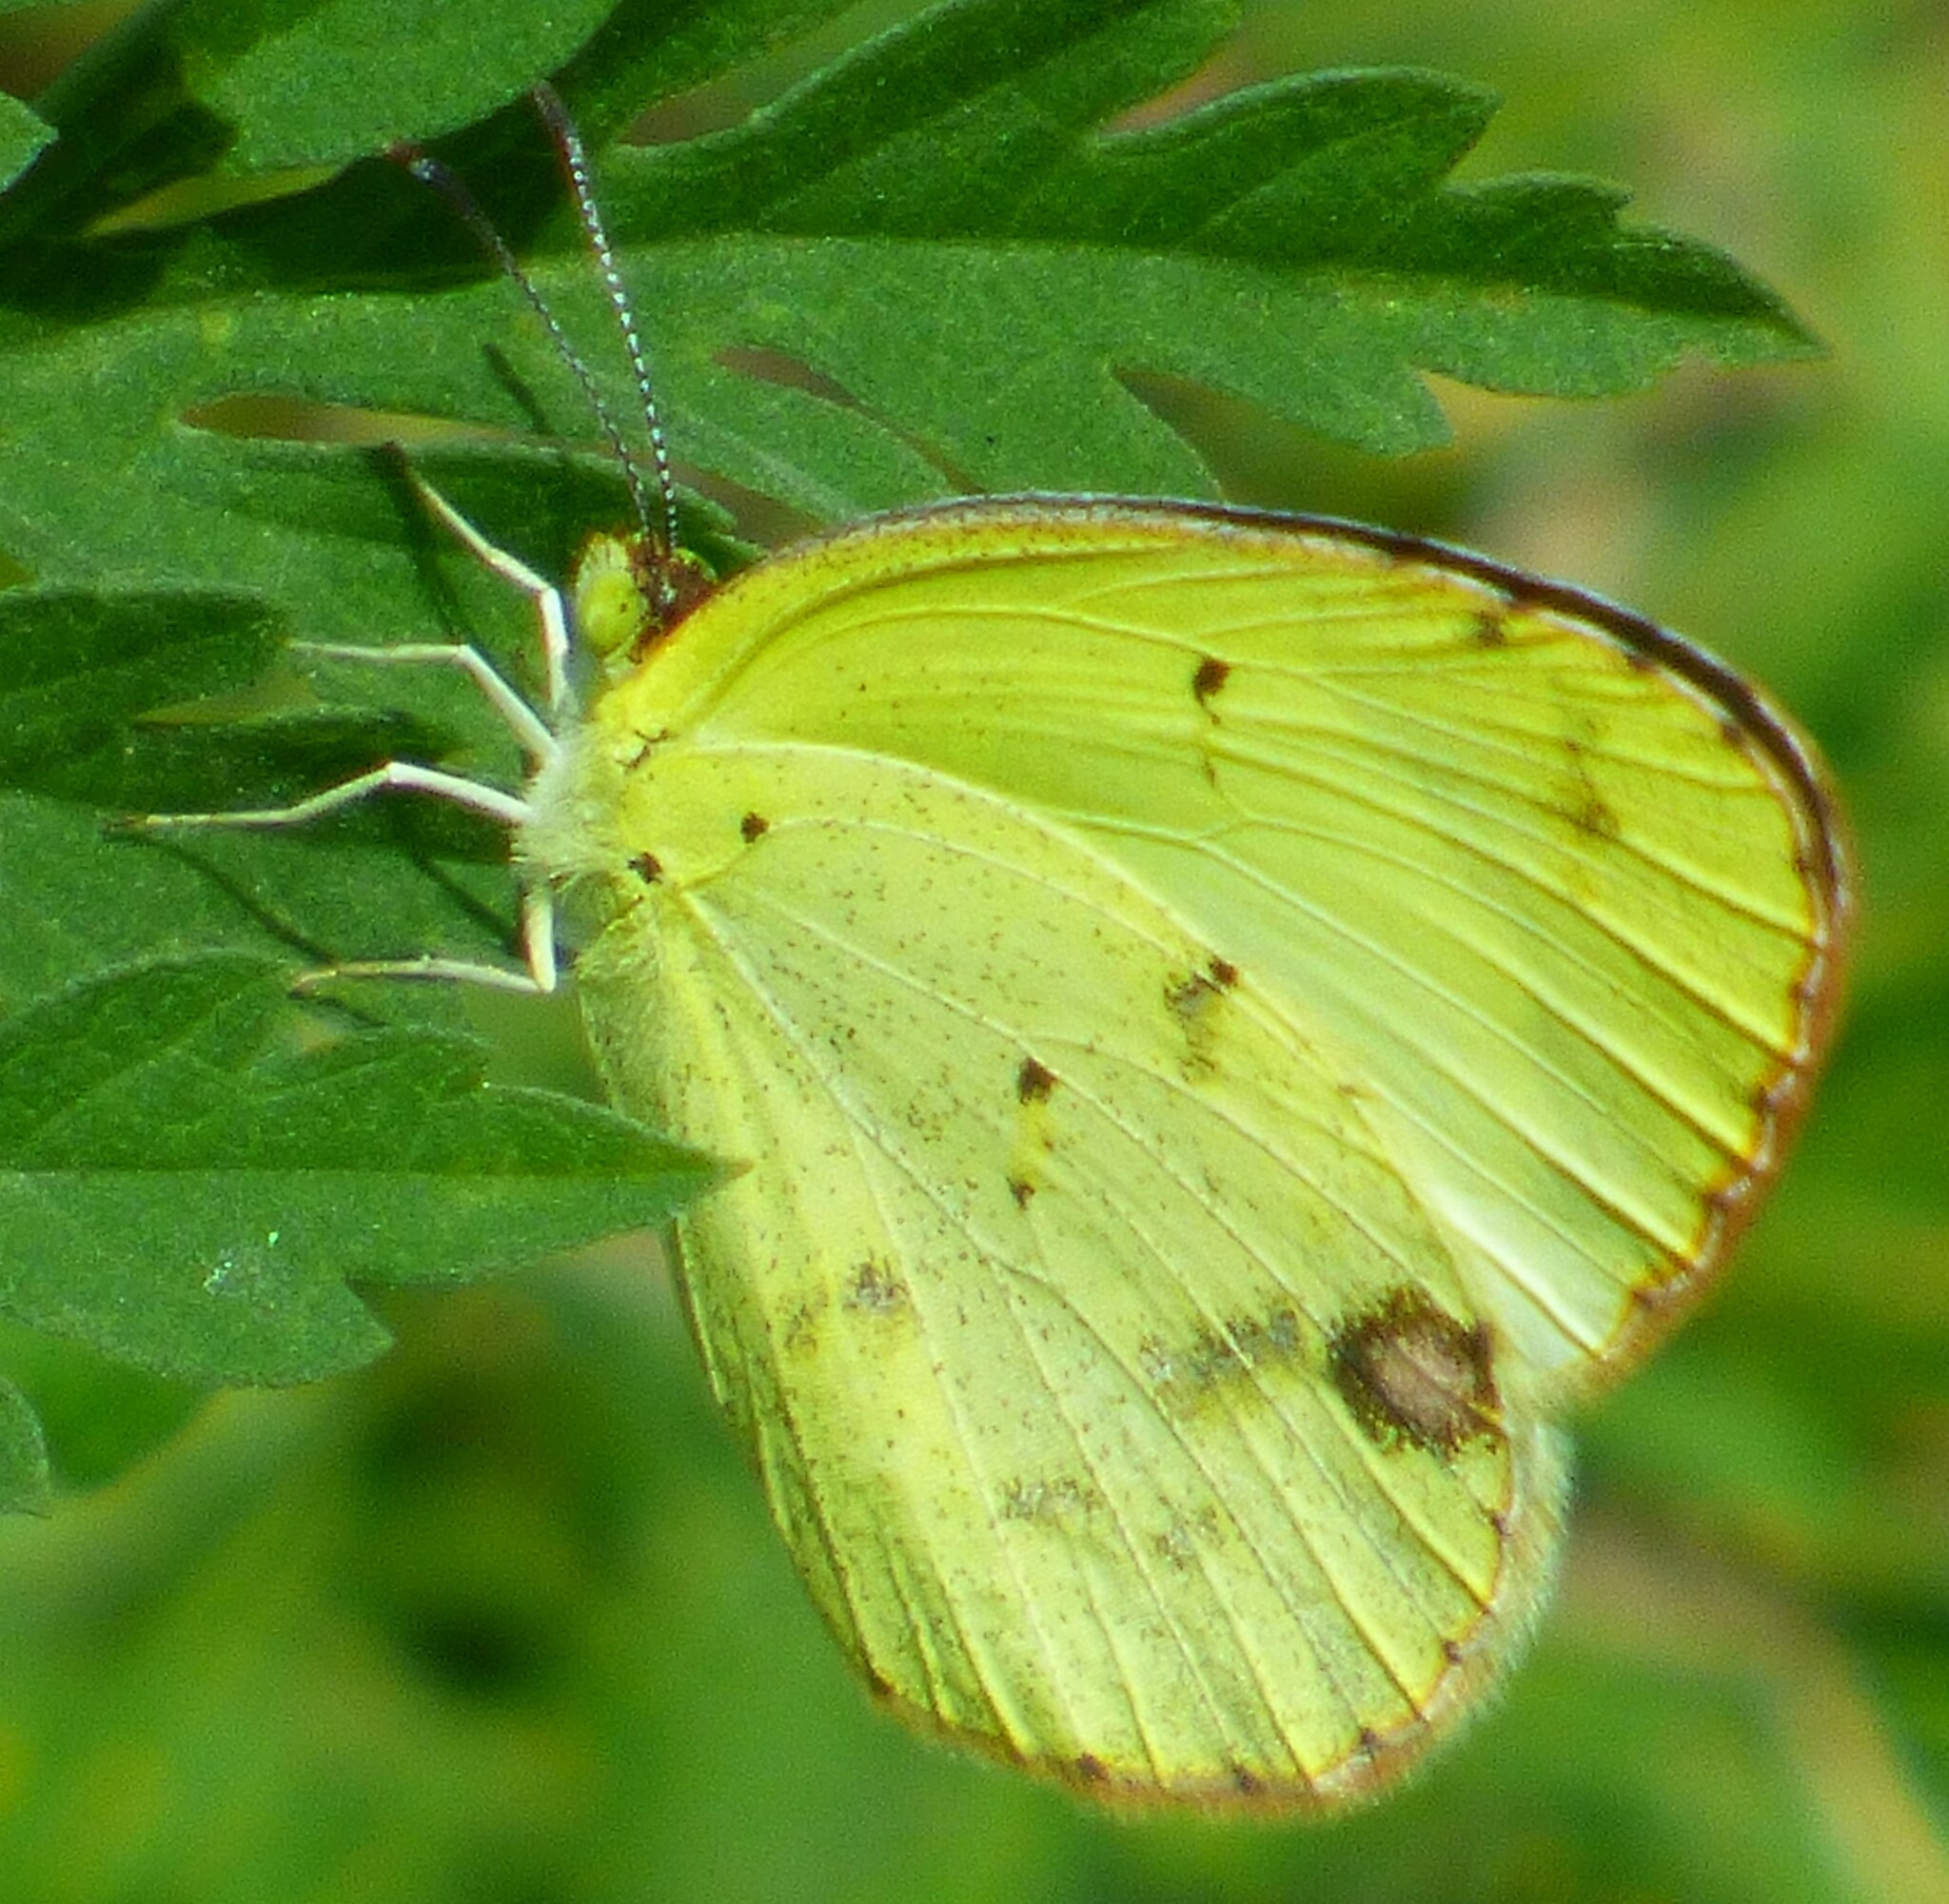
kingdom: Animalia
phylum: Arthropoda
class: Insecta
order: Lepidoptera
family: Pieridae
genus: Pyrisitia
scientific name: Pyrisitia lisa
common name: Little yellow
